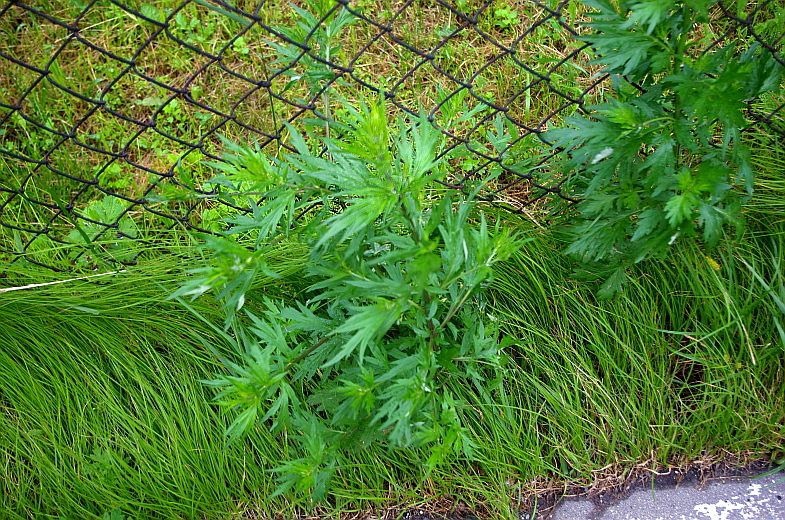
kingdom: Plantae
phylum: Tracheophyta
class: Magnoliopsida
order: Asterales
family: Asteraceae
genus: Artemisia
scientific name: Artemisia vulgaris
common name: Mugwort
